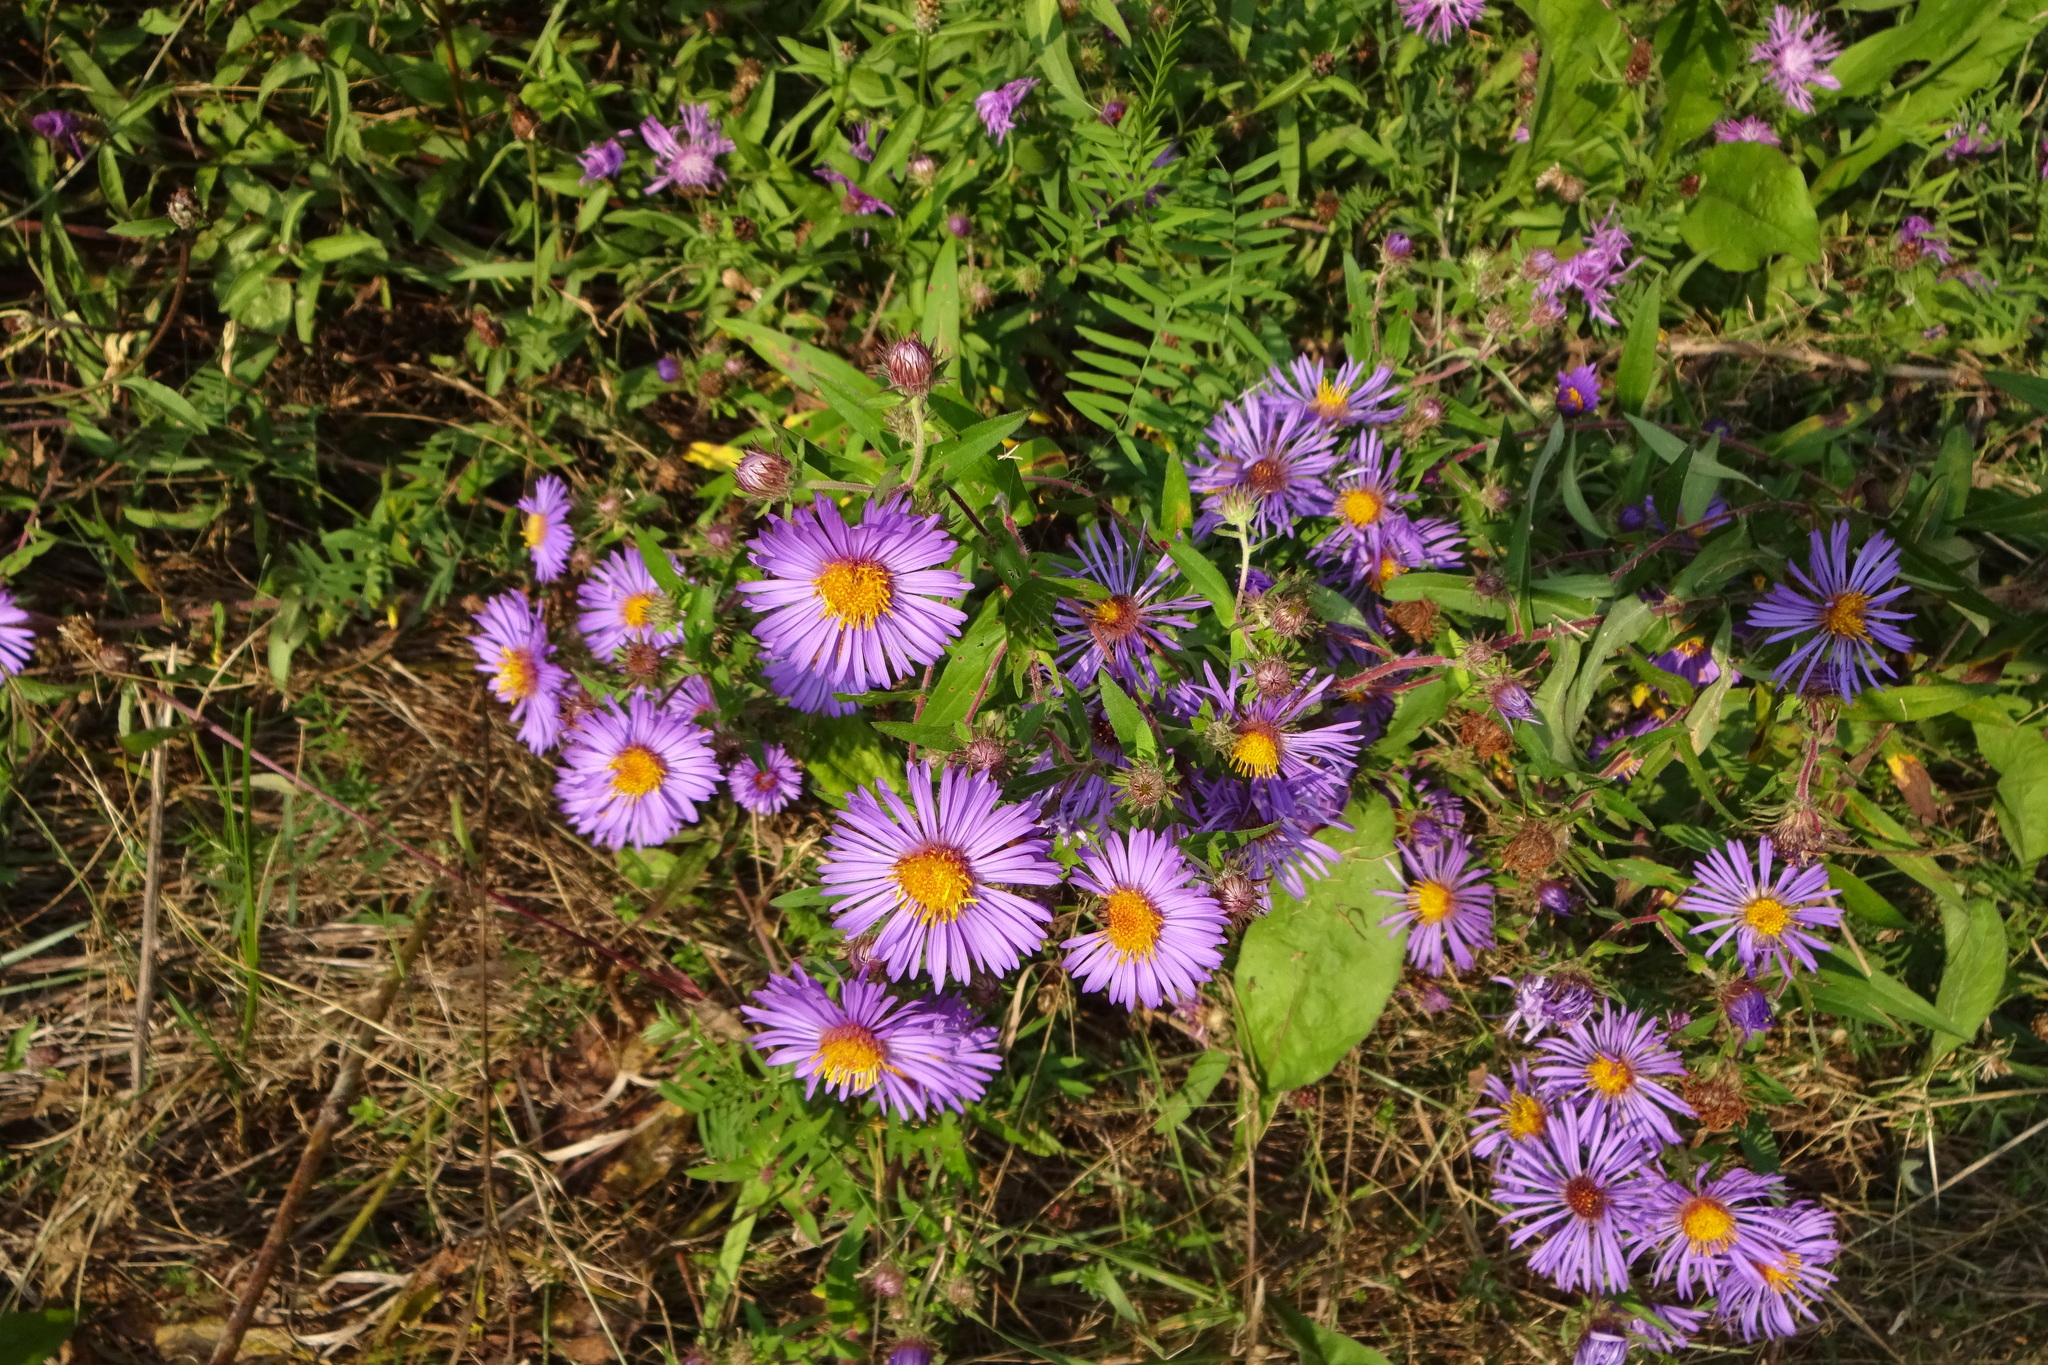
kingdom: Plantae
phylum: Tracheophyta
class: Magnoliopsida
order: Asterales
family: Asteraceae
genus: Symphyotrichum
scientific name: Symphyotrichum novae-angliae
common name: Michaelmas daisy
